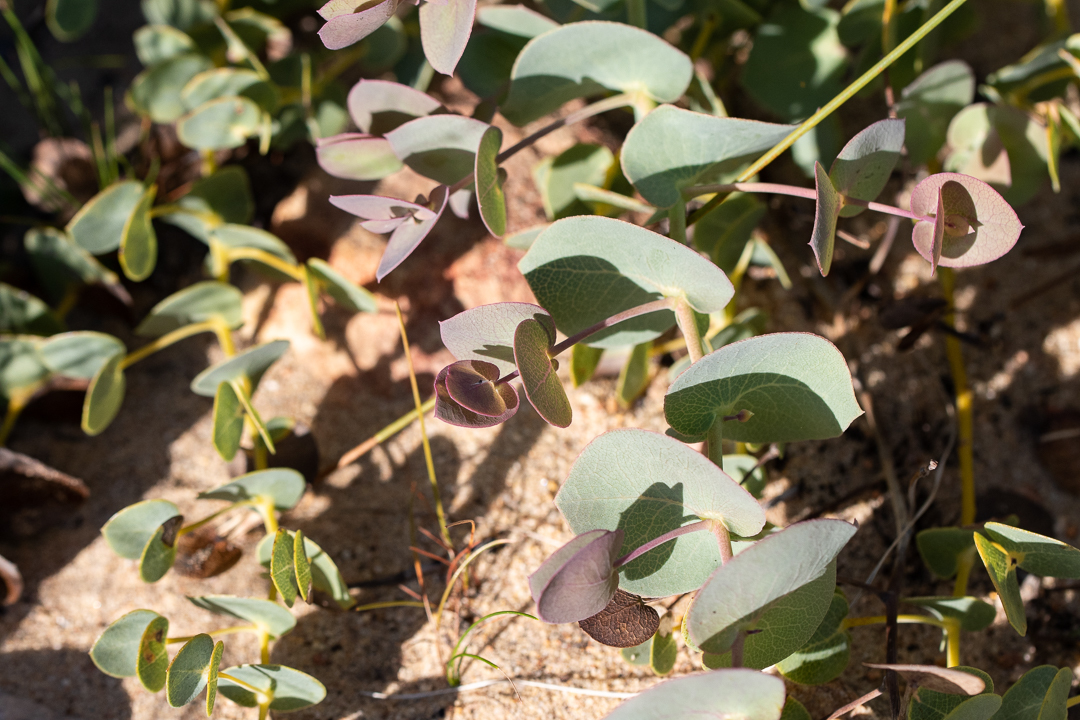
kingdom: Plantae
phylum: Tracheophyta
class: Magnoliopsida
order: Fabales
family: Fabaceae
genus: Rafnia
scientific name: Rafnia acuminata
